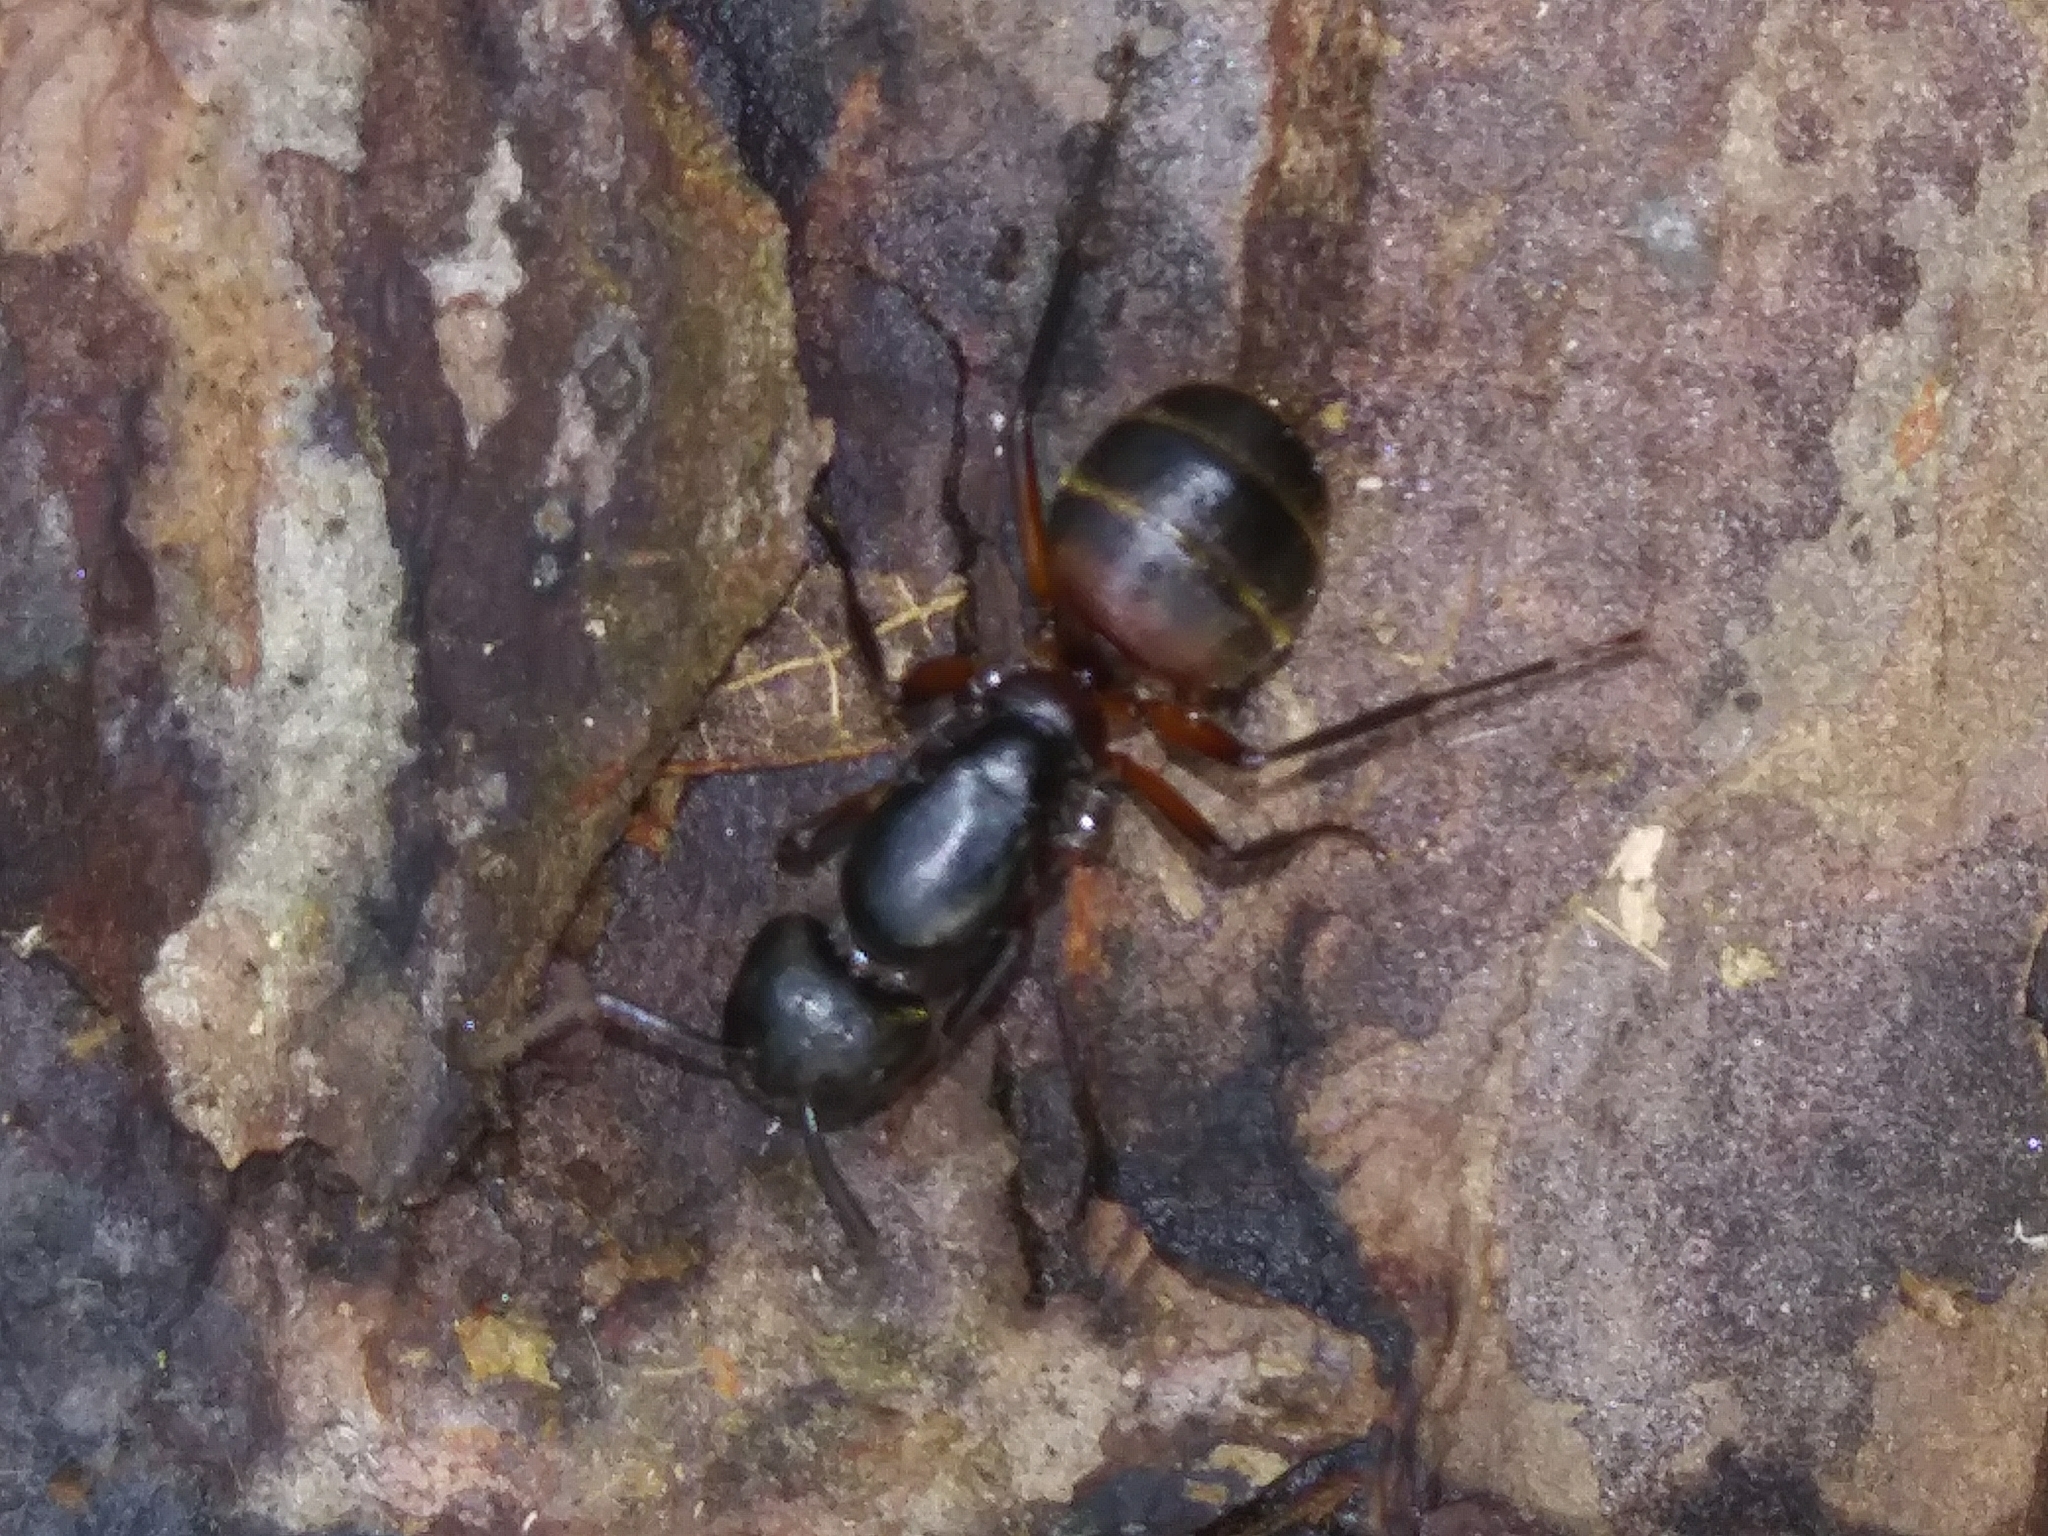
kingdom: Animalia
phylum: Arthropoda
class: Insecta
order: Hymenoptera
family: Formicidae
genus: Camponotus
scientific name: Camponotus chromaiodes
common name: Red carpenter ant
